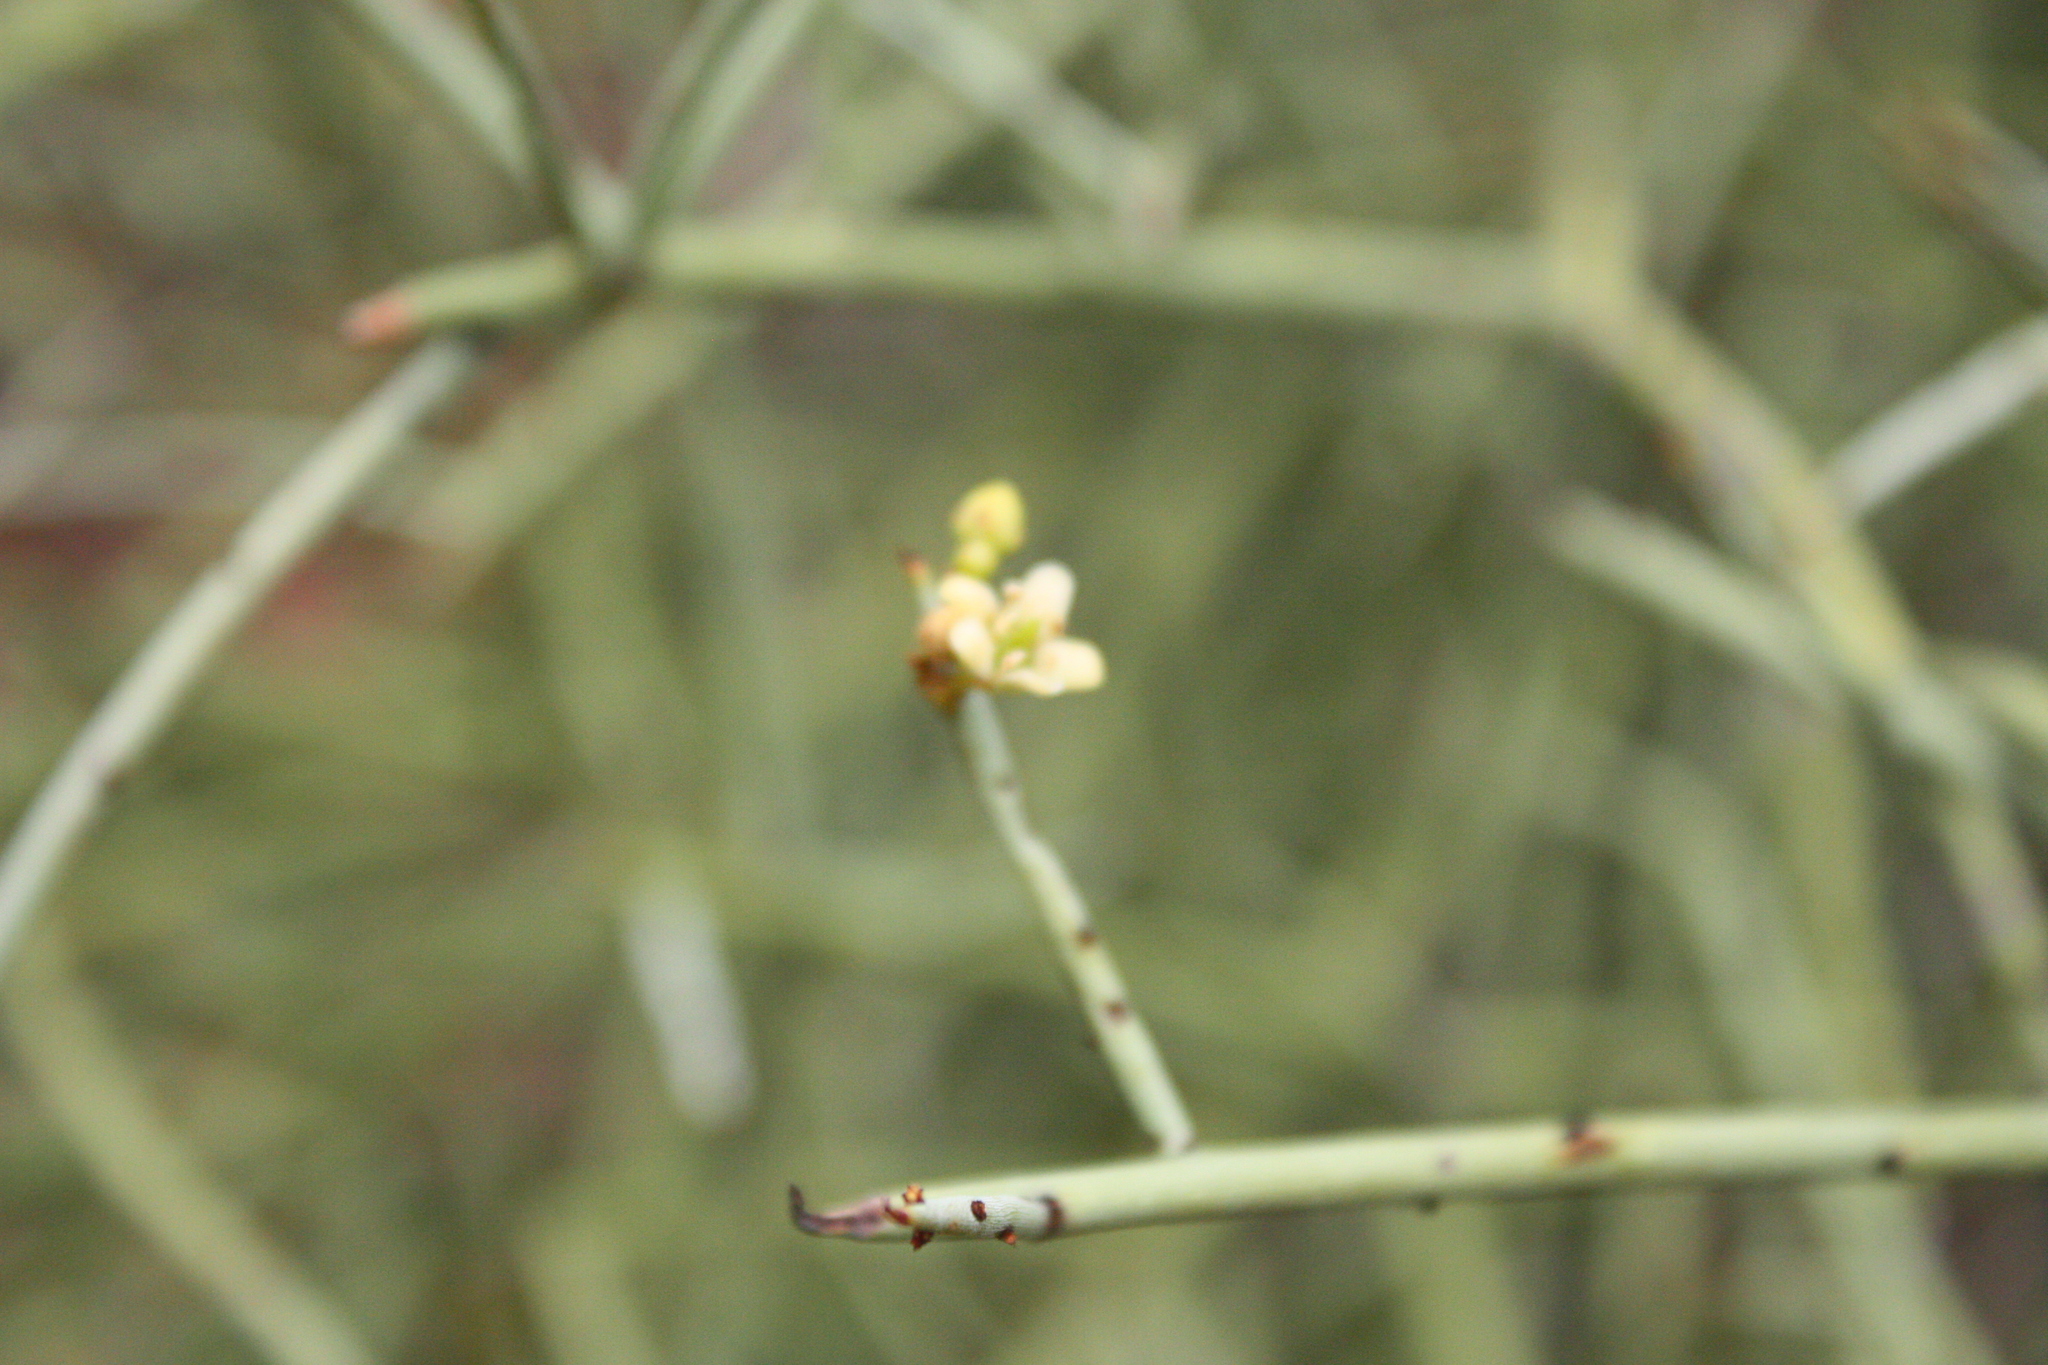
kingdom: Plantae
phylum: Tracheophyta
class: Magnoliopsida
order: Celastrales
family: Celastraceae
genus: Canotia
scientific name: Canotia holacantha
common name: Crucifixion thorns
